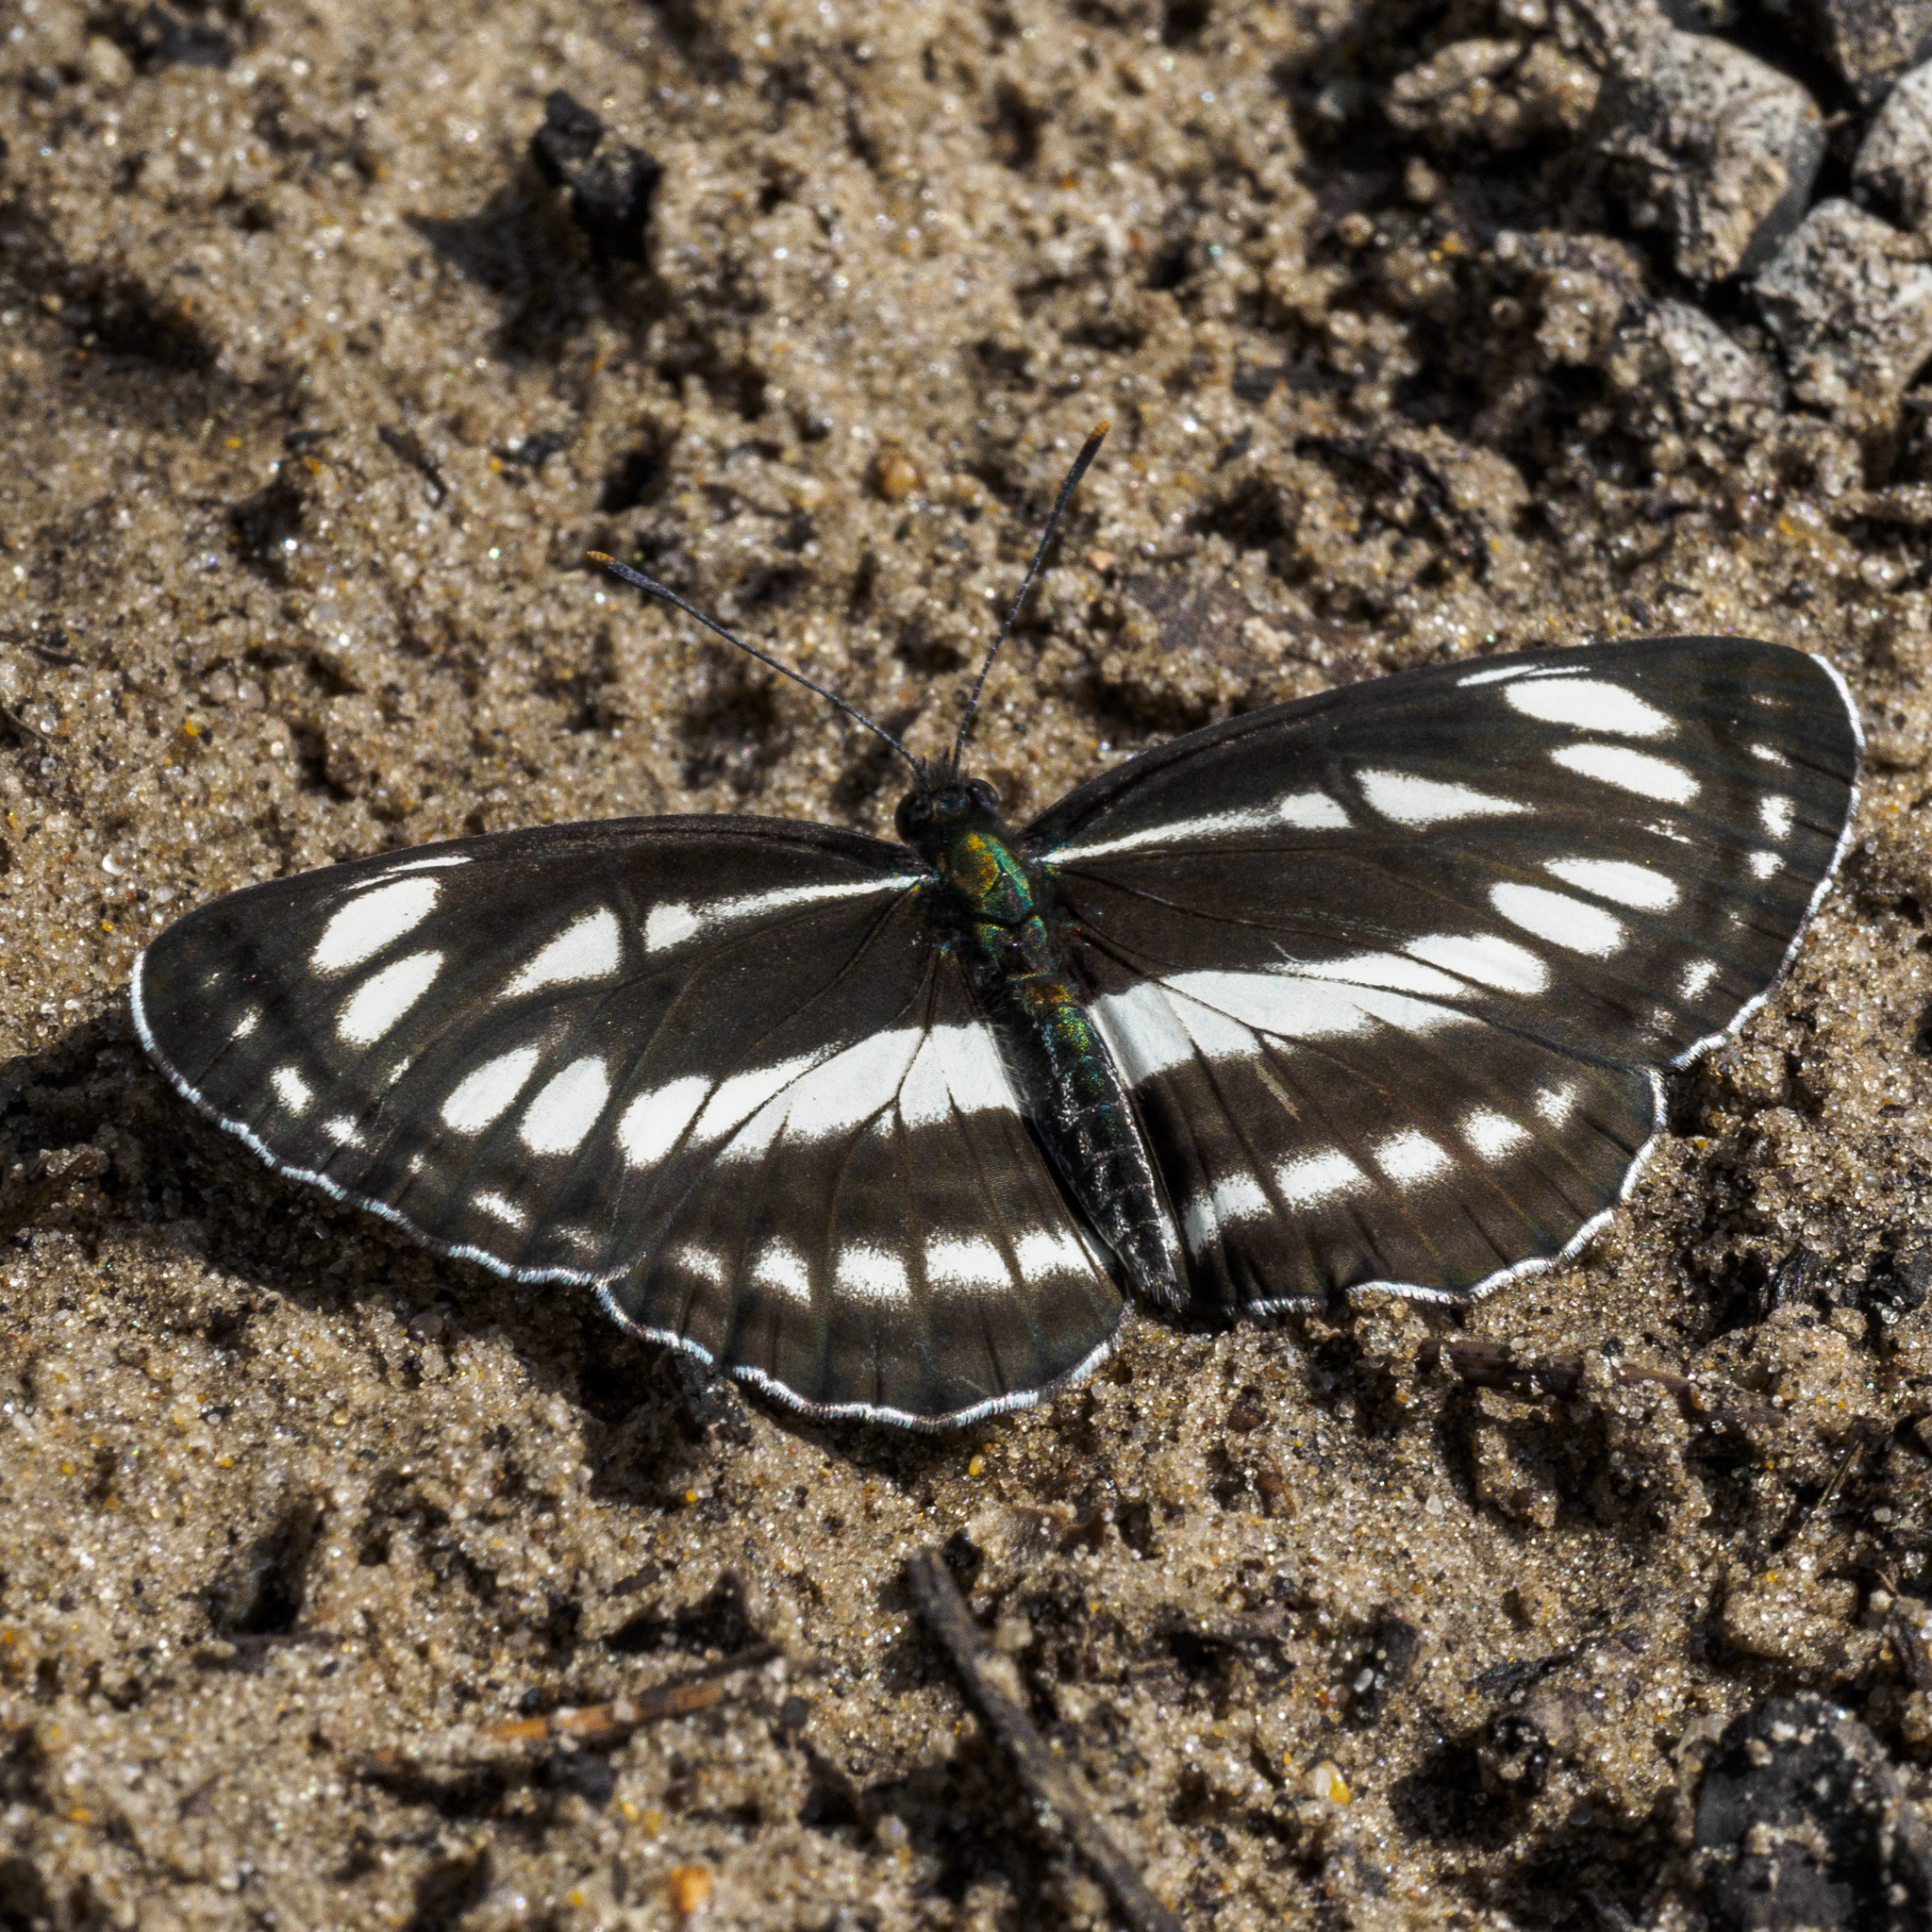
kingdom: Animalia
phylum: Arthropoda
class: Insecta
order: Lepidoptera
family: Nymphalidae
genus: Neptis
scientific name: Neptis sappho
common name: Common glider
